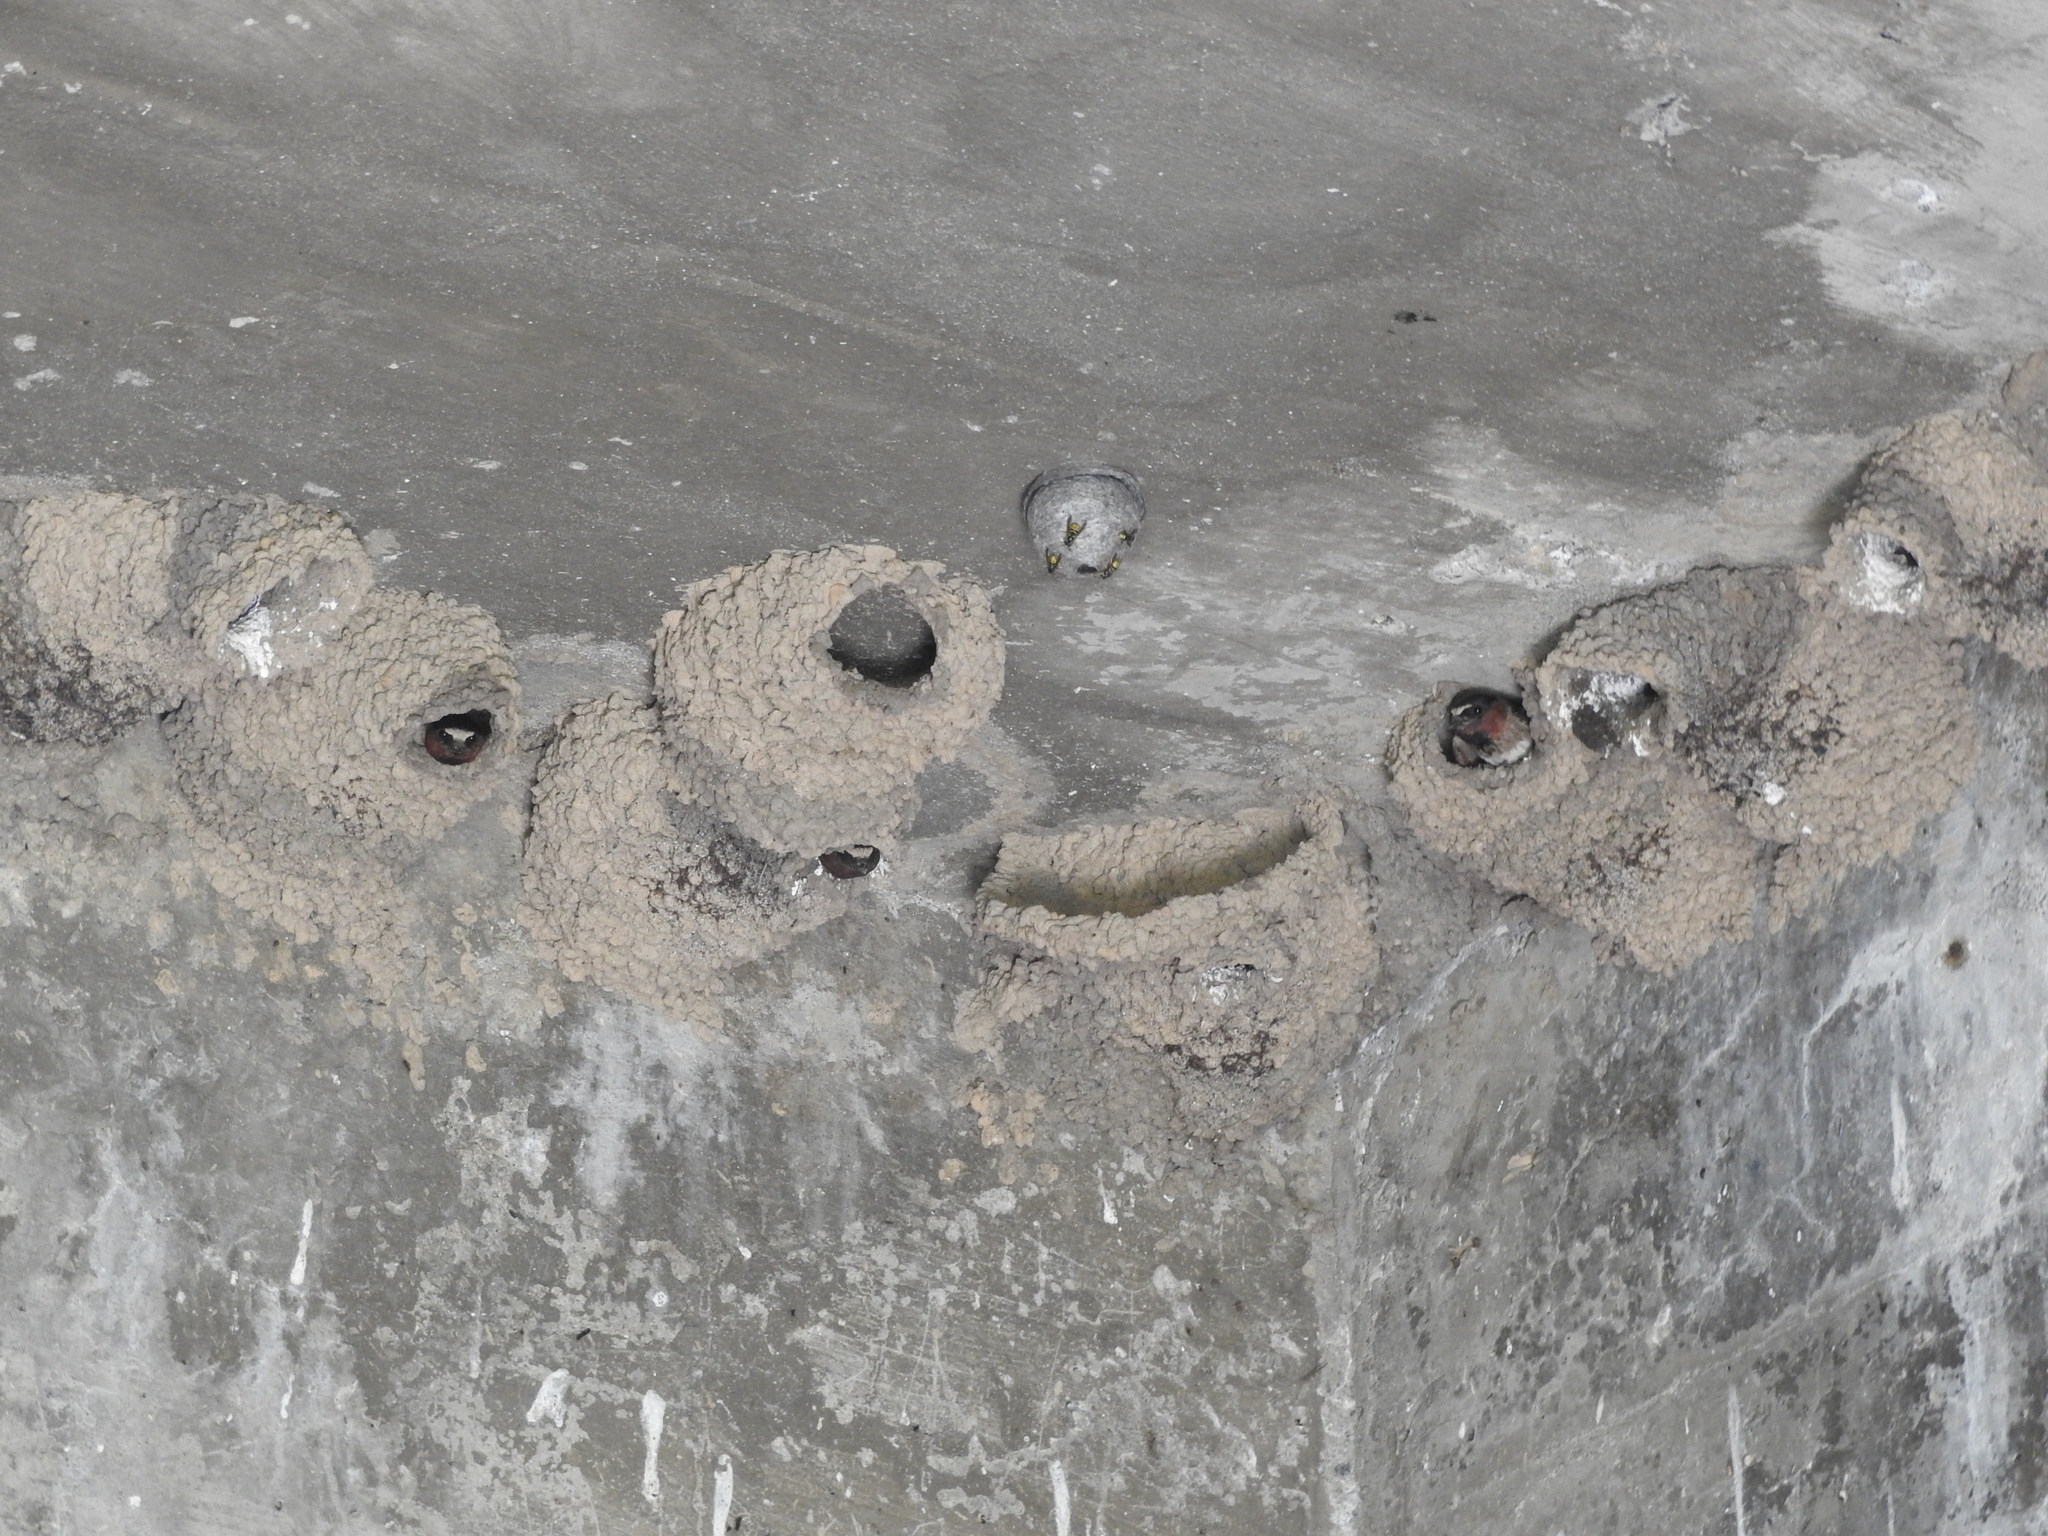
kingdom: Animalia
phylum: Chordata
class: Aves
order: Passeriformes
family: Hirundinidae
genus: Petrochelidon
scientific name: Petrochelidon pyrrhonota
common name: American cliff swallow
